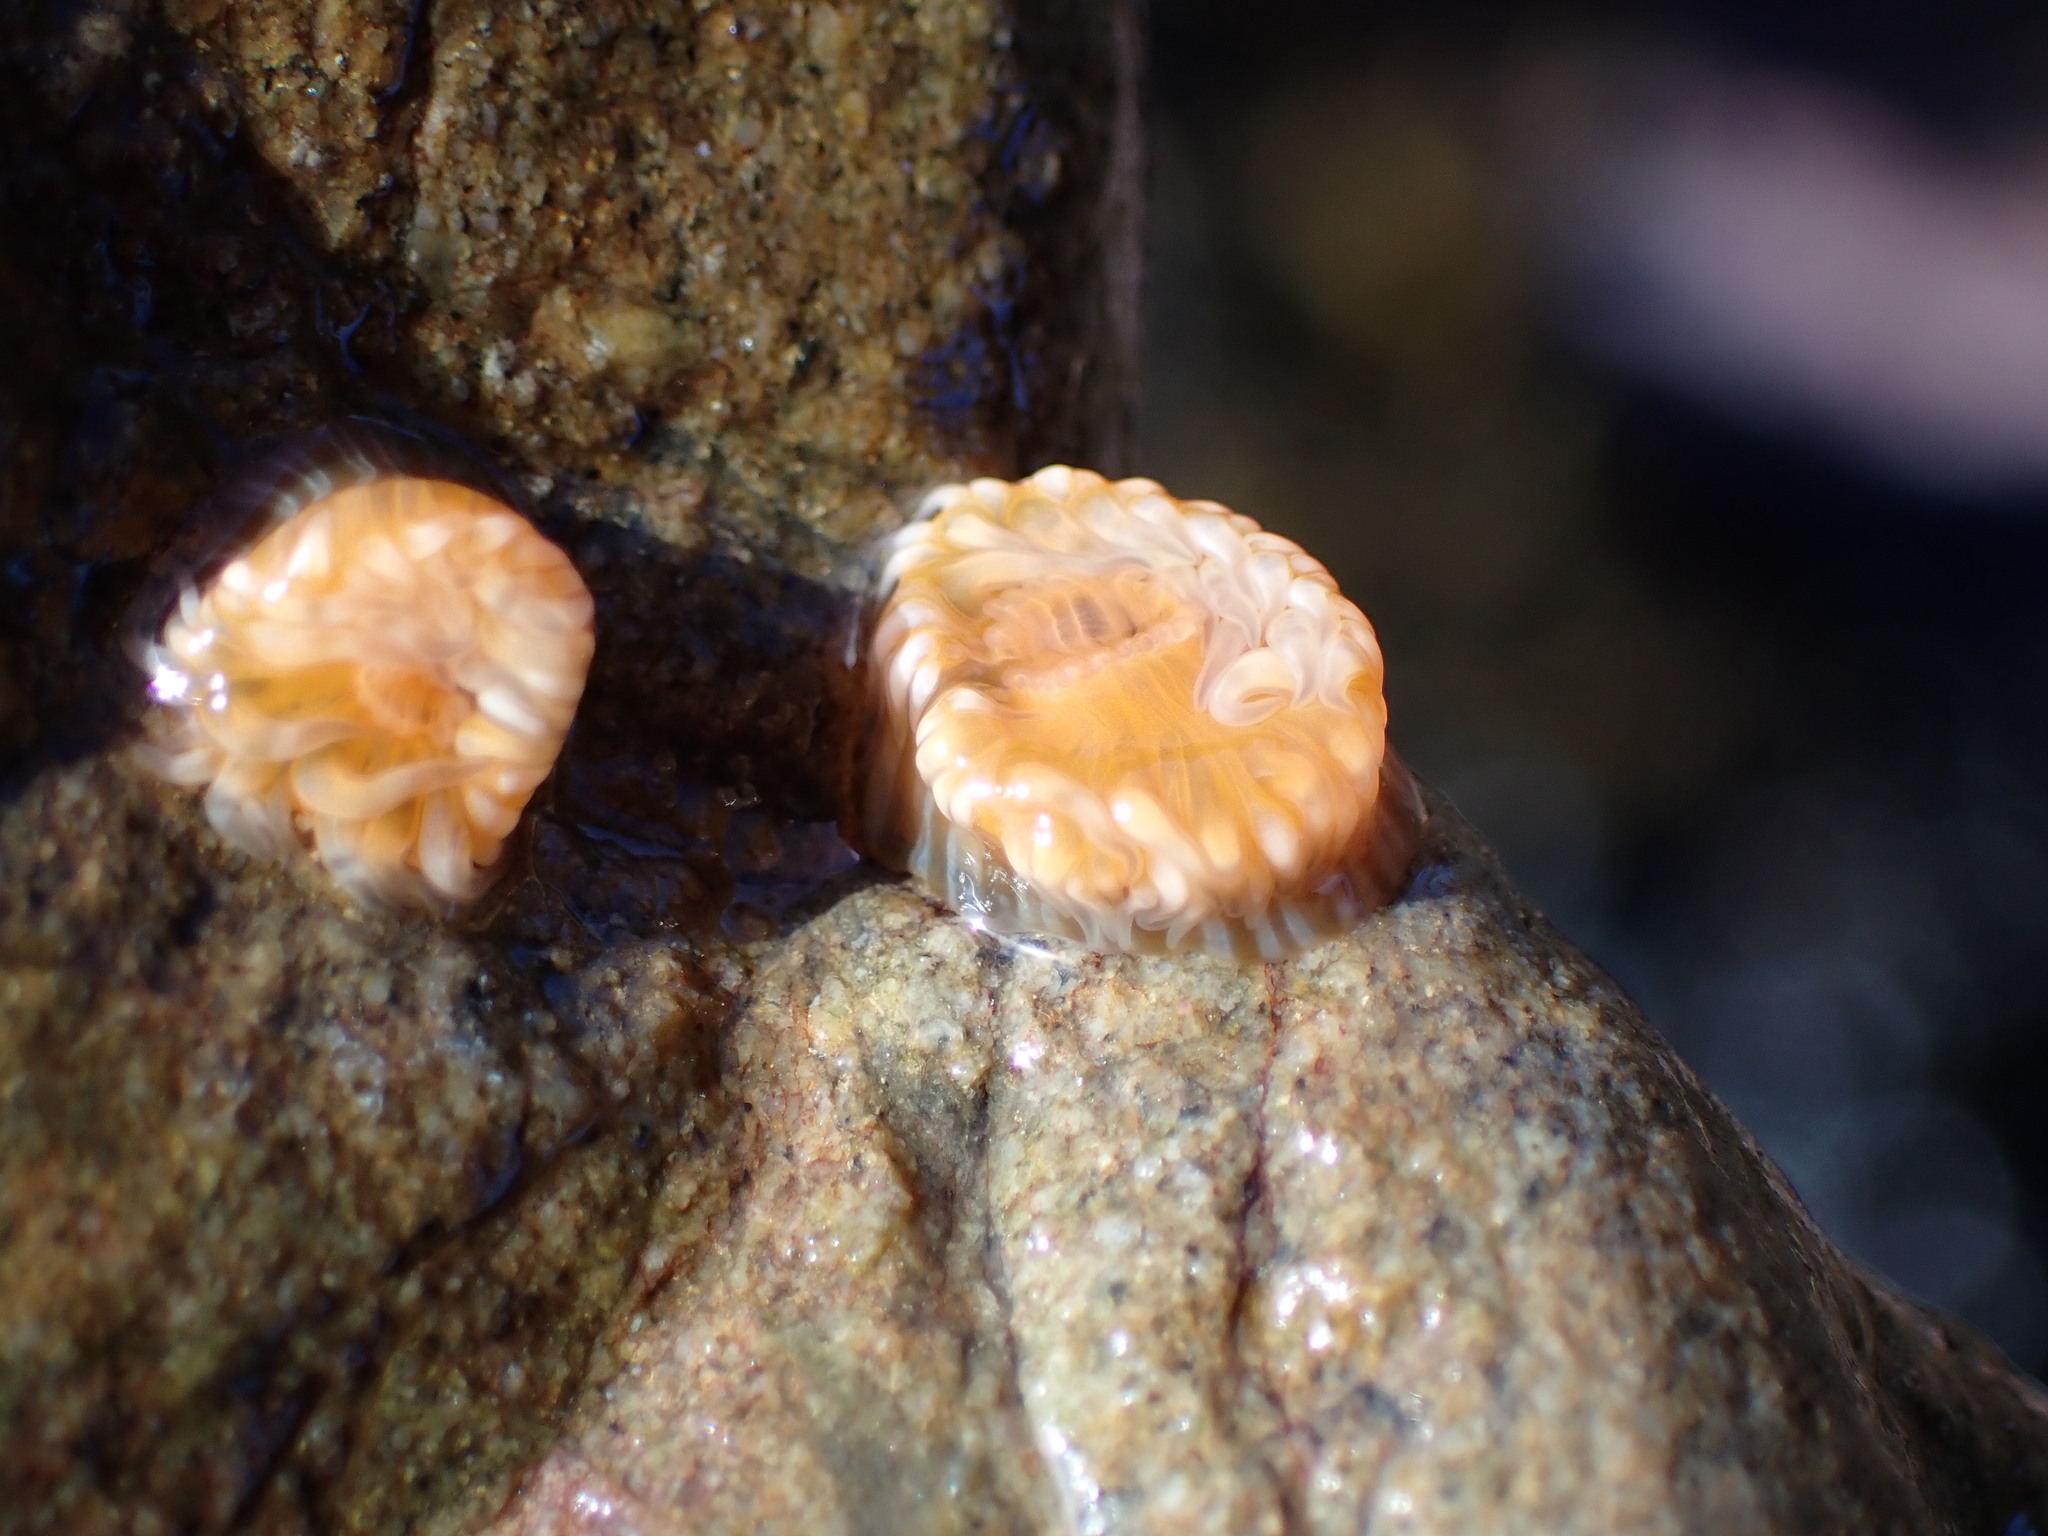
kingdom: Animalia
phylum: Cnidaria
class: Anthozoa
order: Actiniaria
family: Sagartiidae
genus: Anthothoe
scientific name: Anthothoe albocincta
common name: Orange striped anemone
